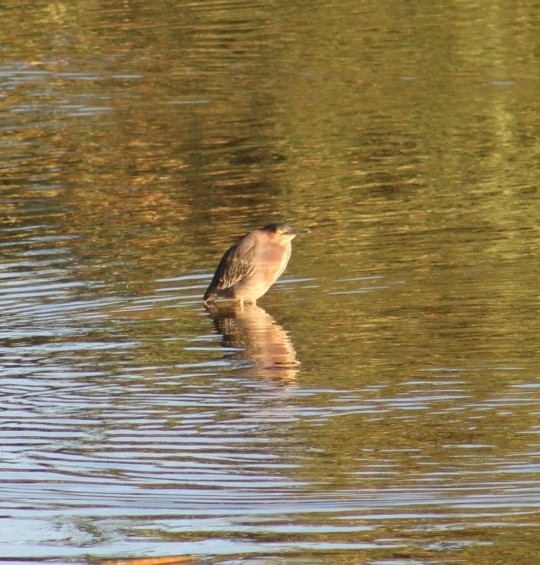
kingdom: Animalia
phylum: Chordata
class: Aves
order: Pelecaniformes
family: Ardeidae
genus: Butorides
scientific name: Butorides virescens
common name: Green heron
